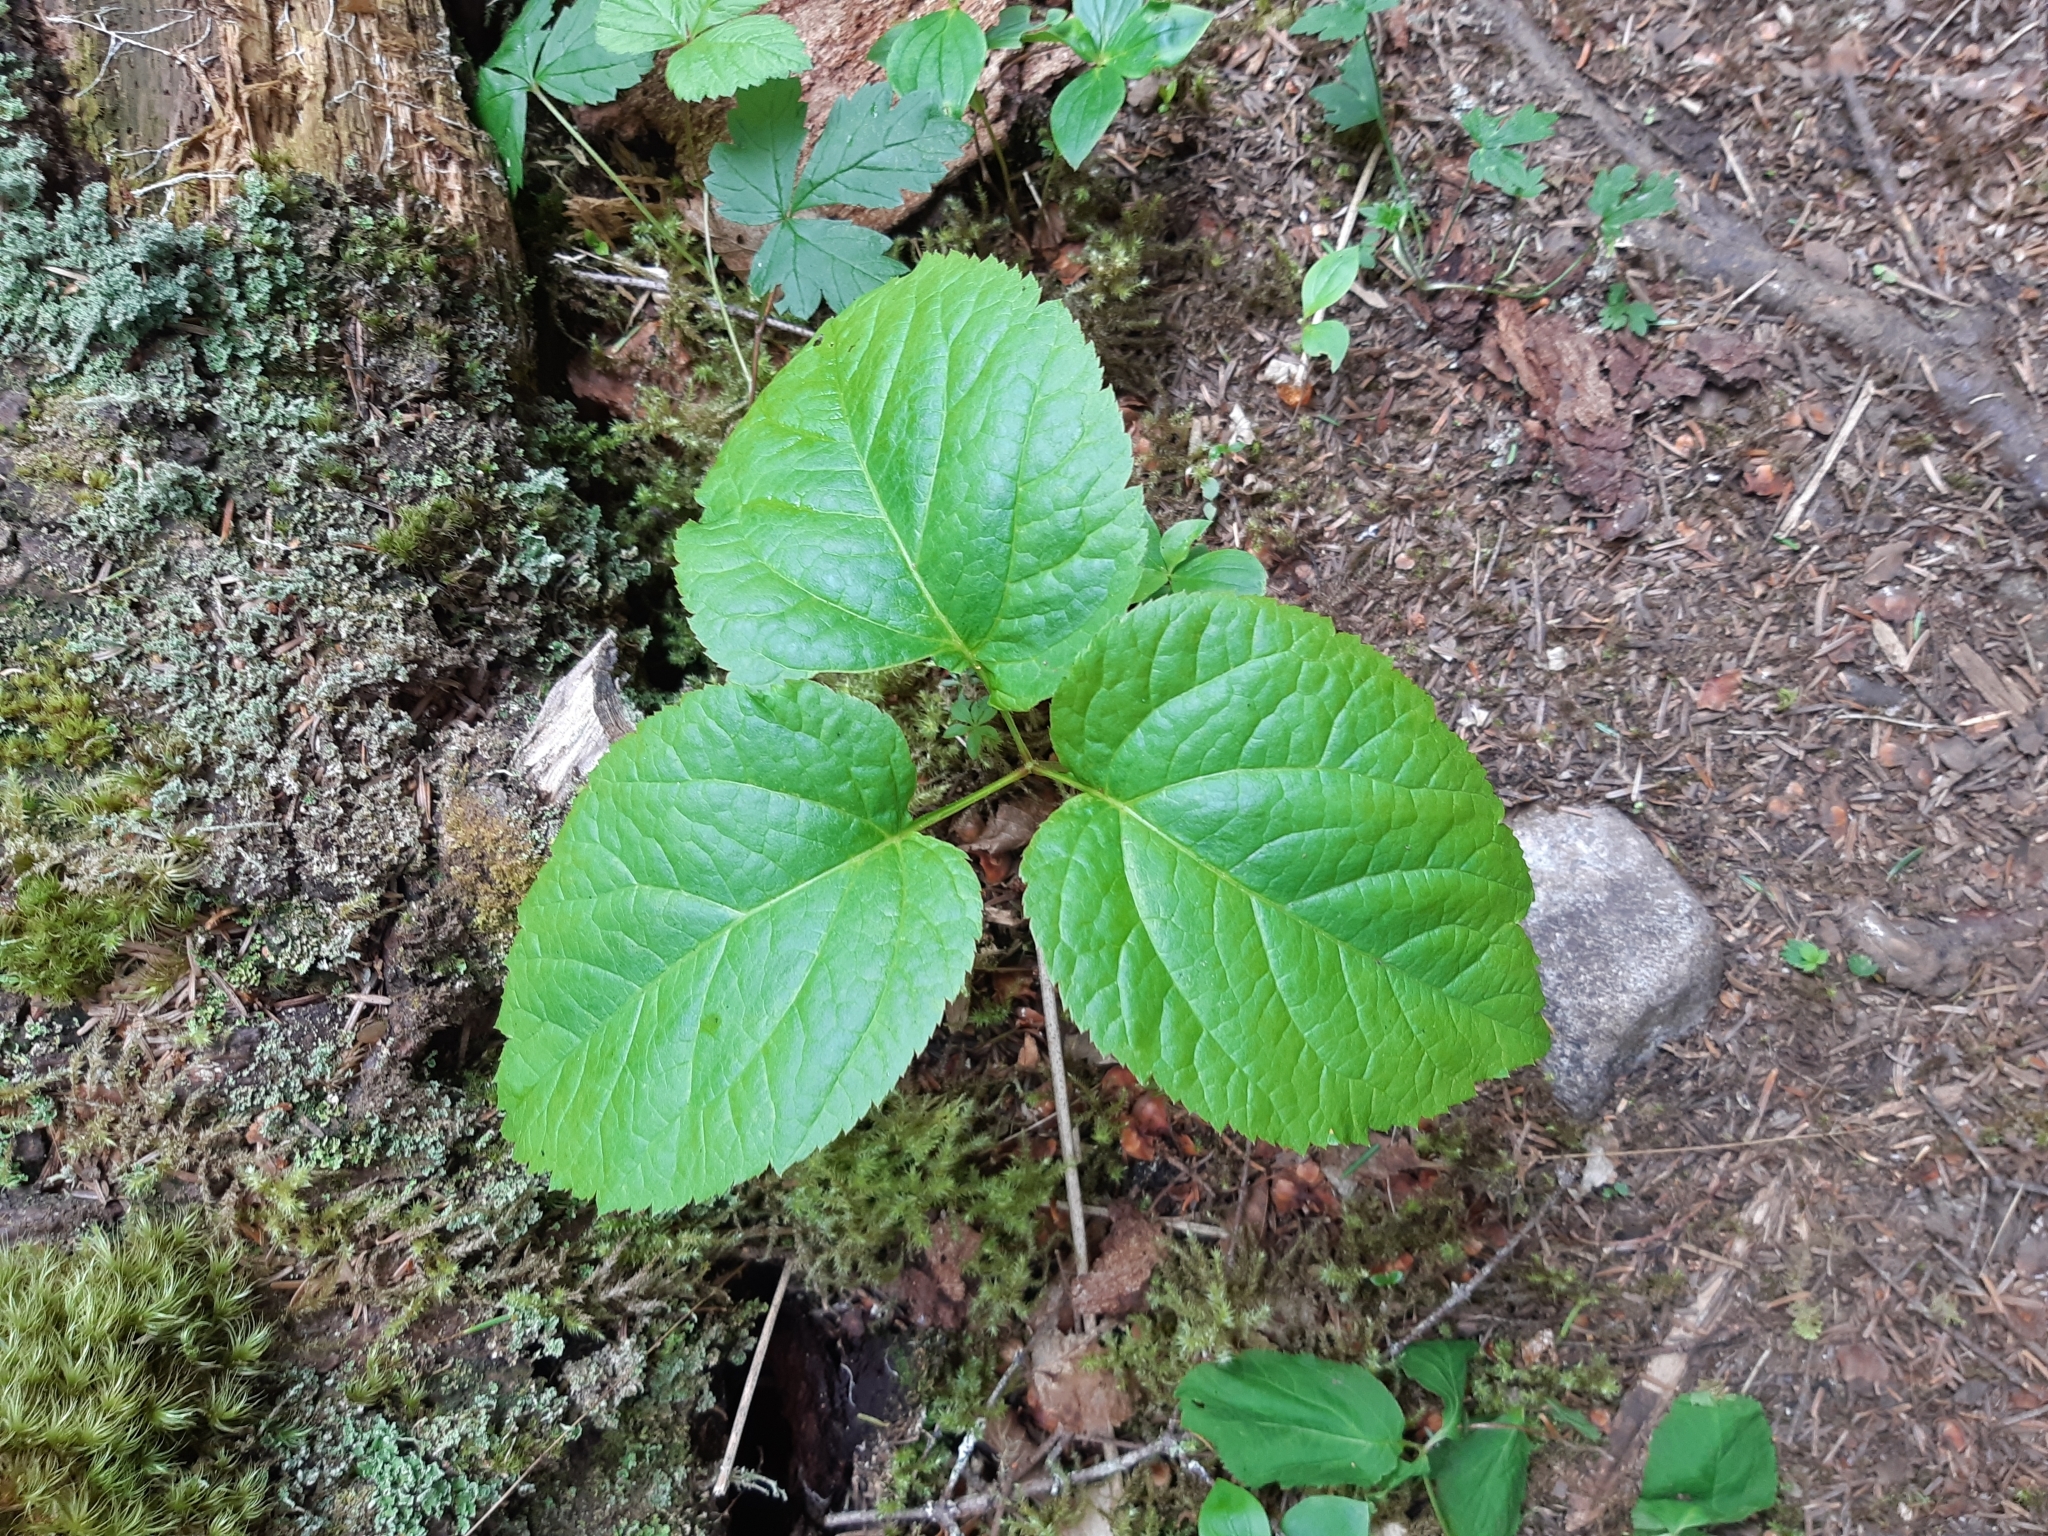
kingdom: Plantae
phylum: Tracheophyta
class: Magnoliopsida
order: Apiales
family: Araliaceae
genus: Aralia
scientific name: Aralia nudicaulis
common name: Wild sarsaparilla
